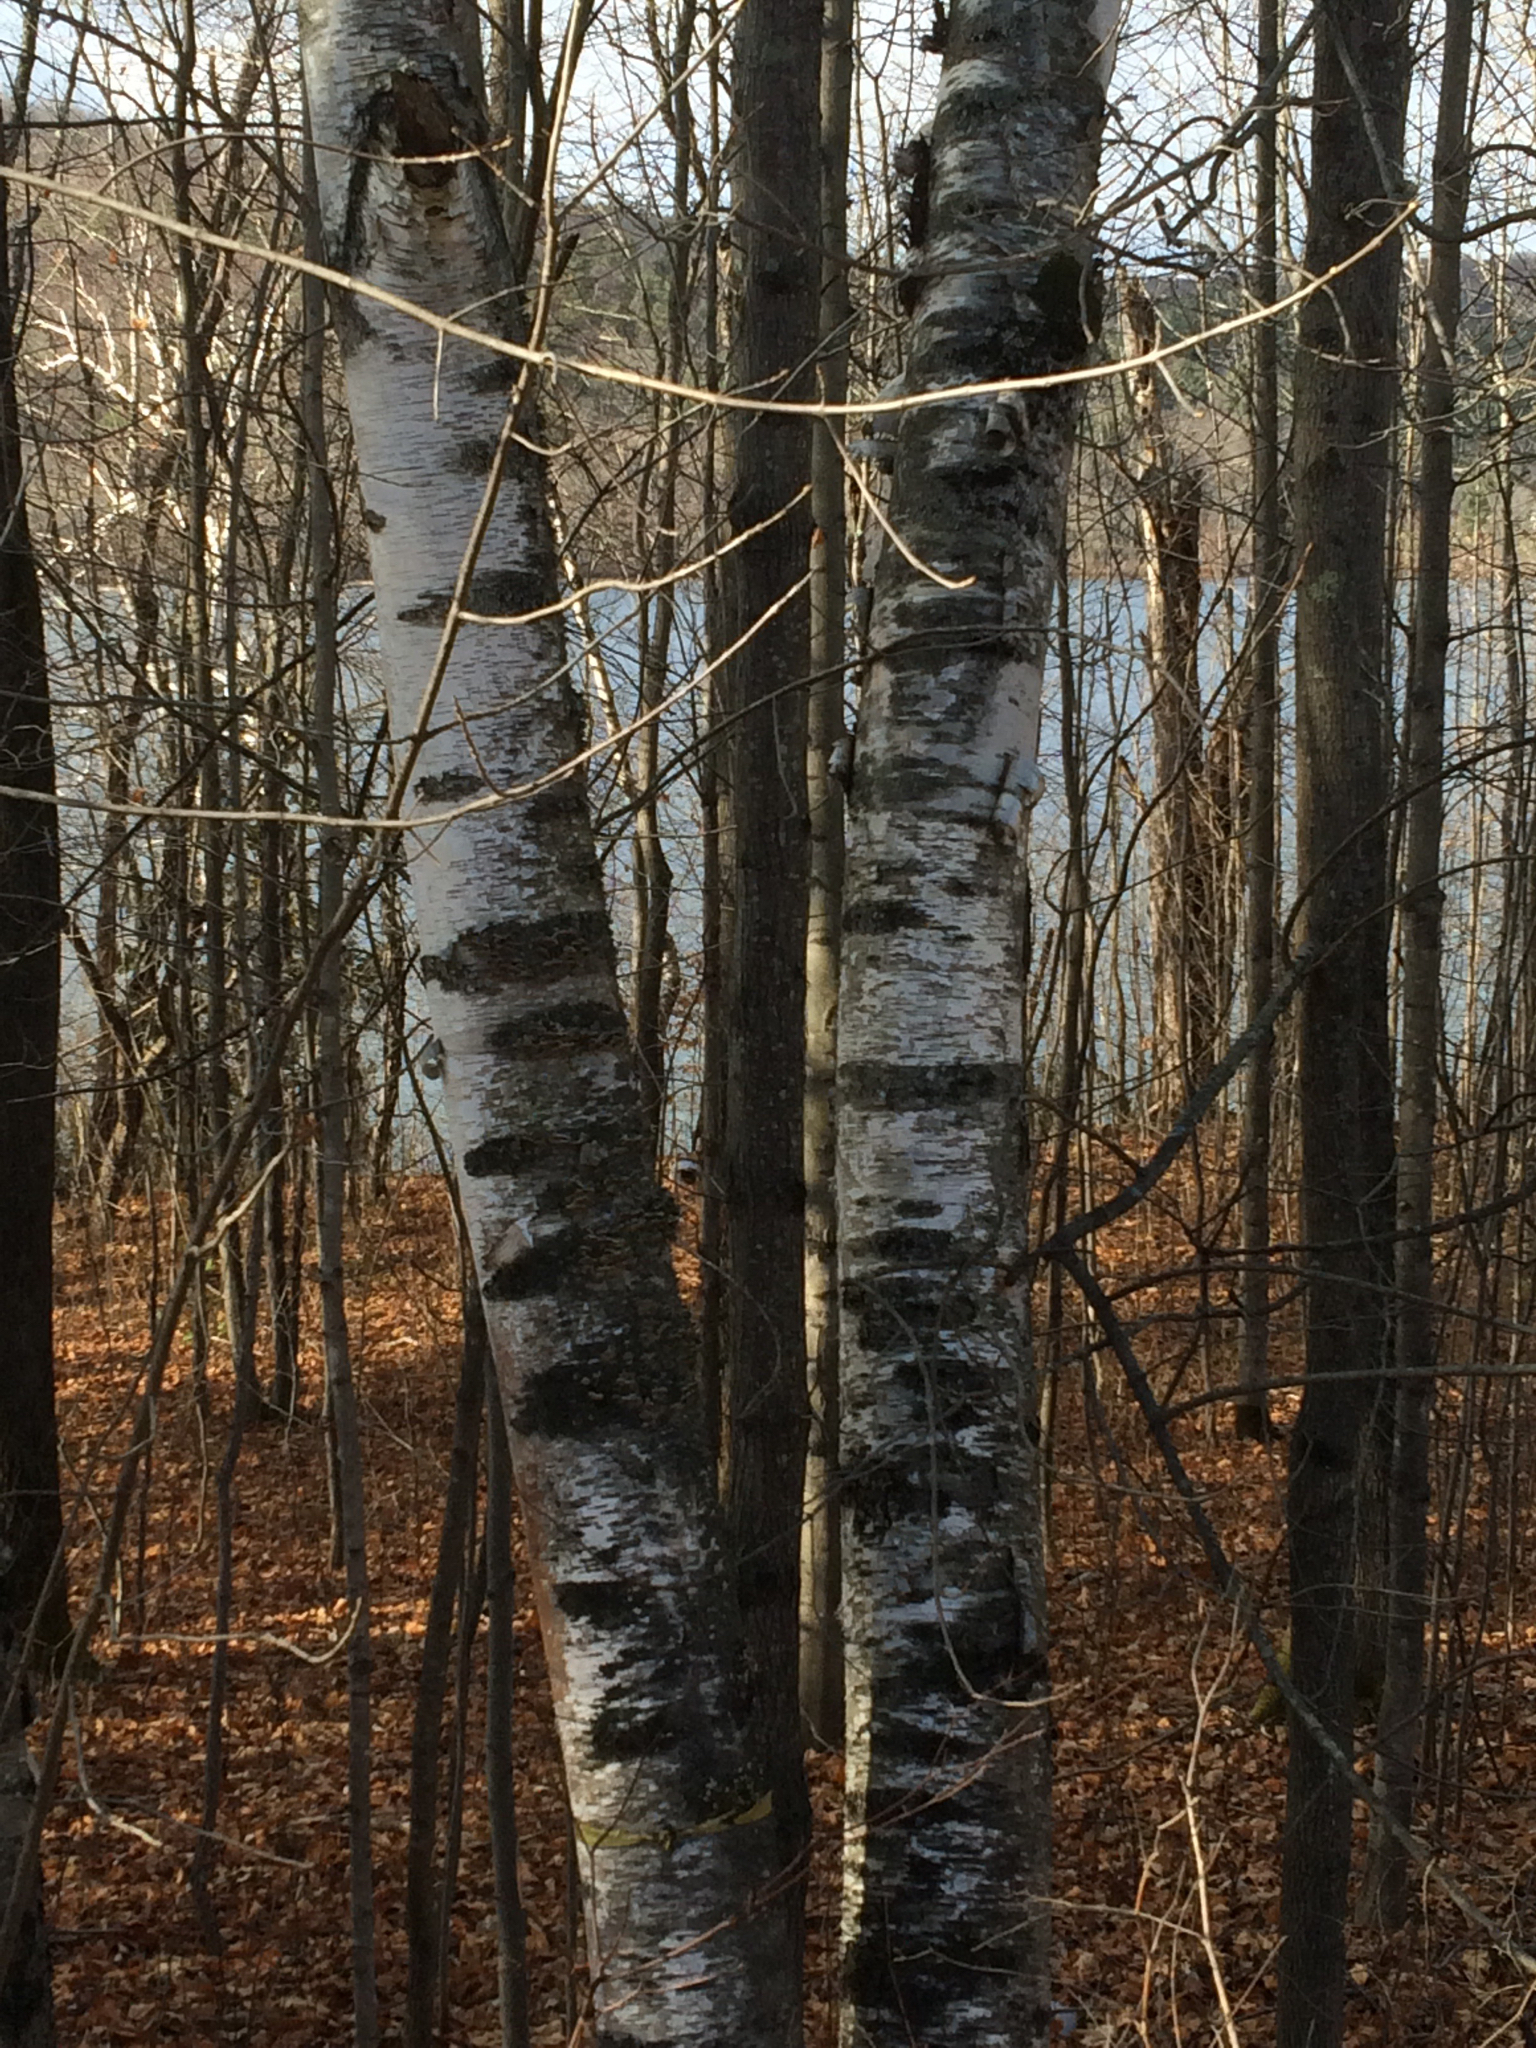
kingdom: Plantae
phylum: Tracheophyta
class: Magnoliopsida
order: Fagales
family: Betulaceae
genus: Betula
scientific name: Betula papyrifera
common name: Paper birch
